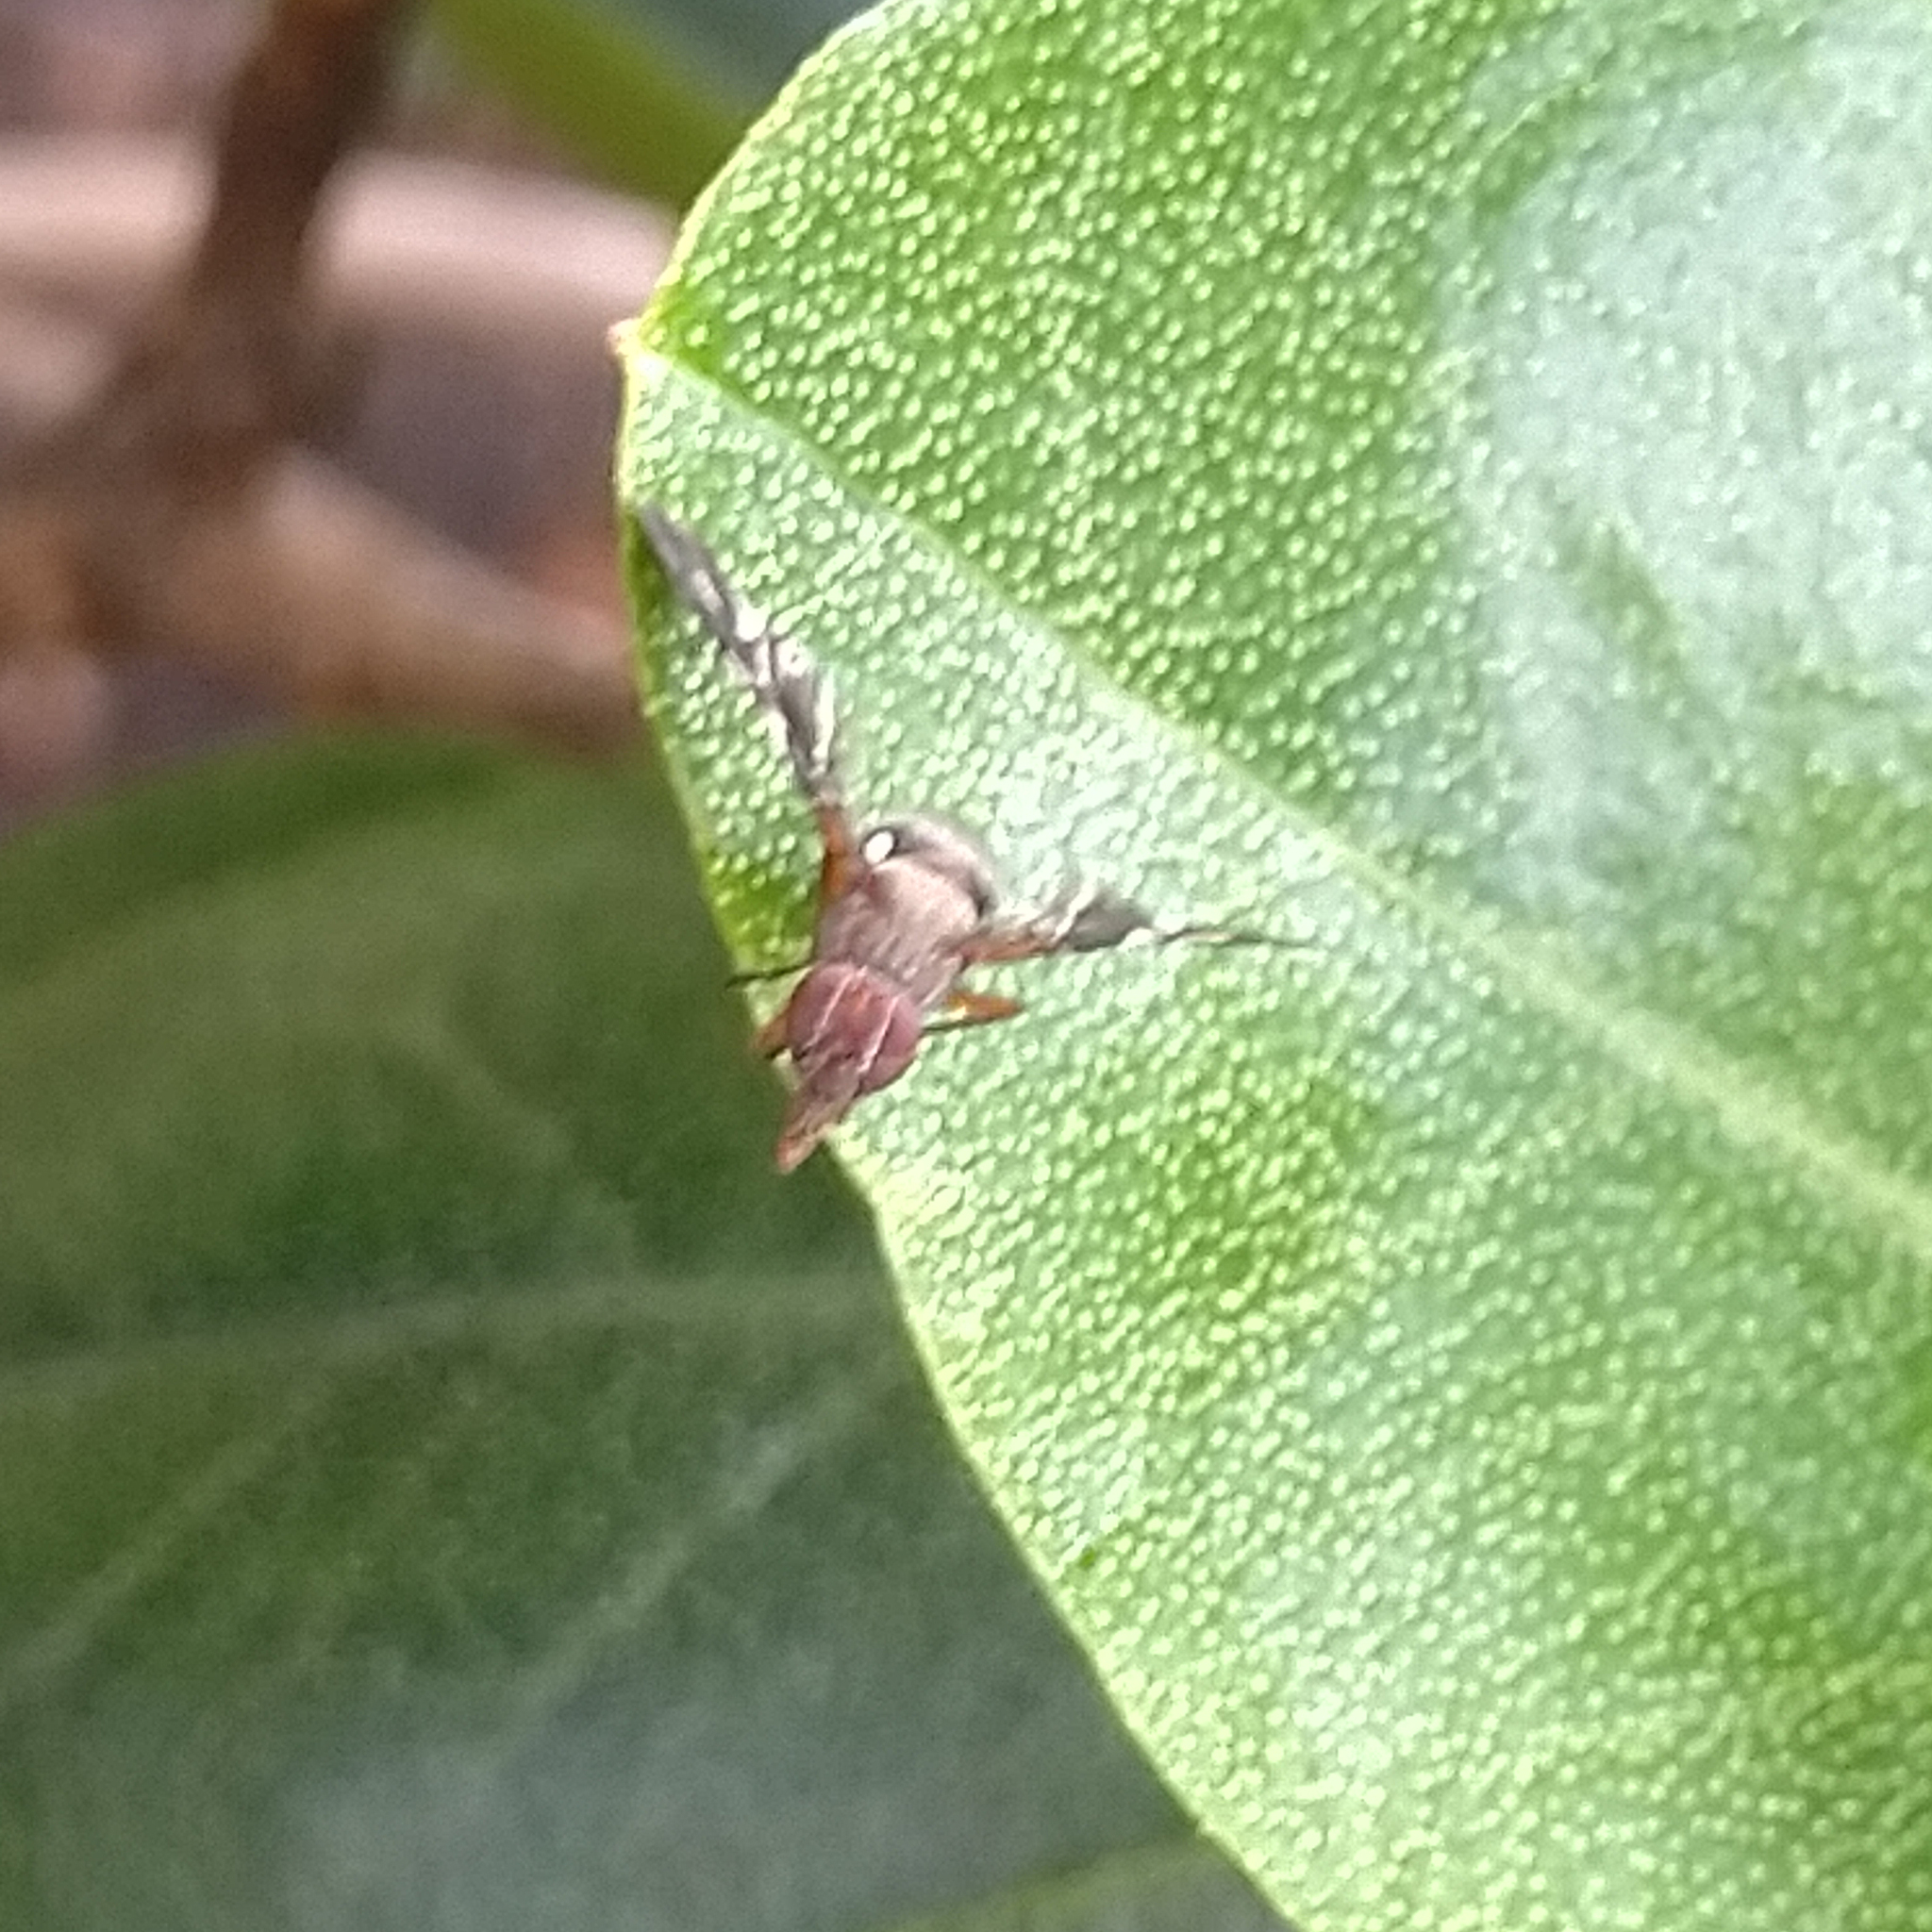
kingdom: Animalia
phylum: Arthropoda
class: Insecta
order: Diptera
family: Ulidiidae
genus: Delphinia
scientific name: Delphinia picta
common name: Common picture-winged fly
